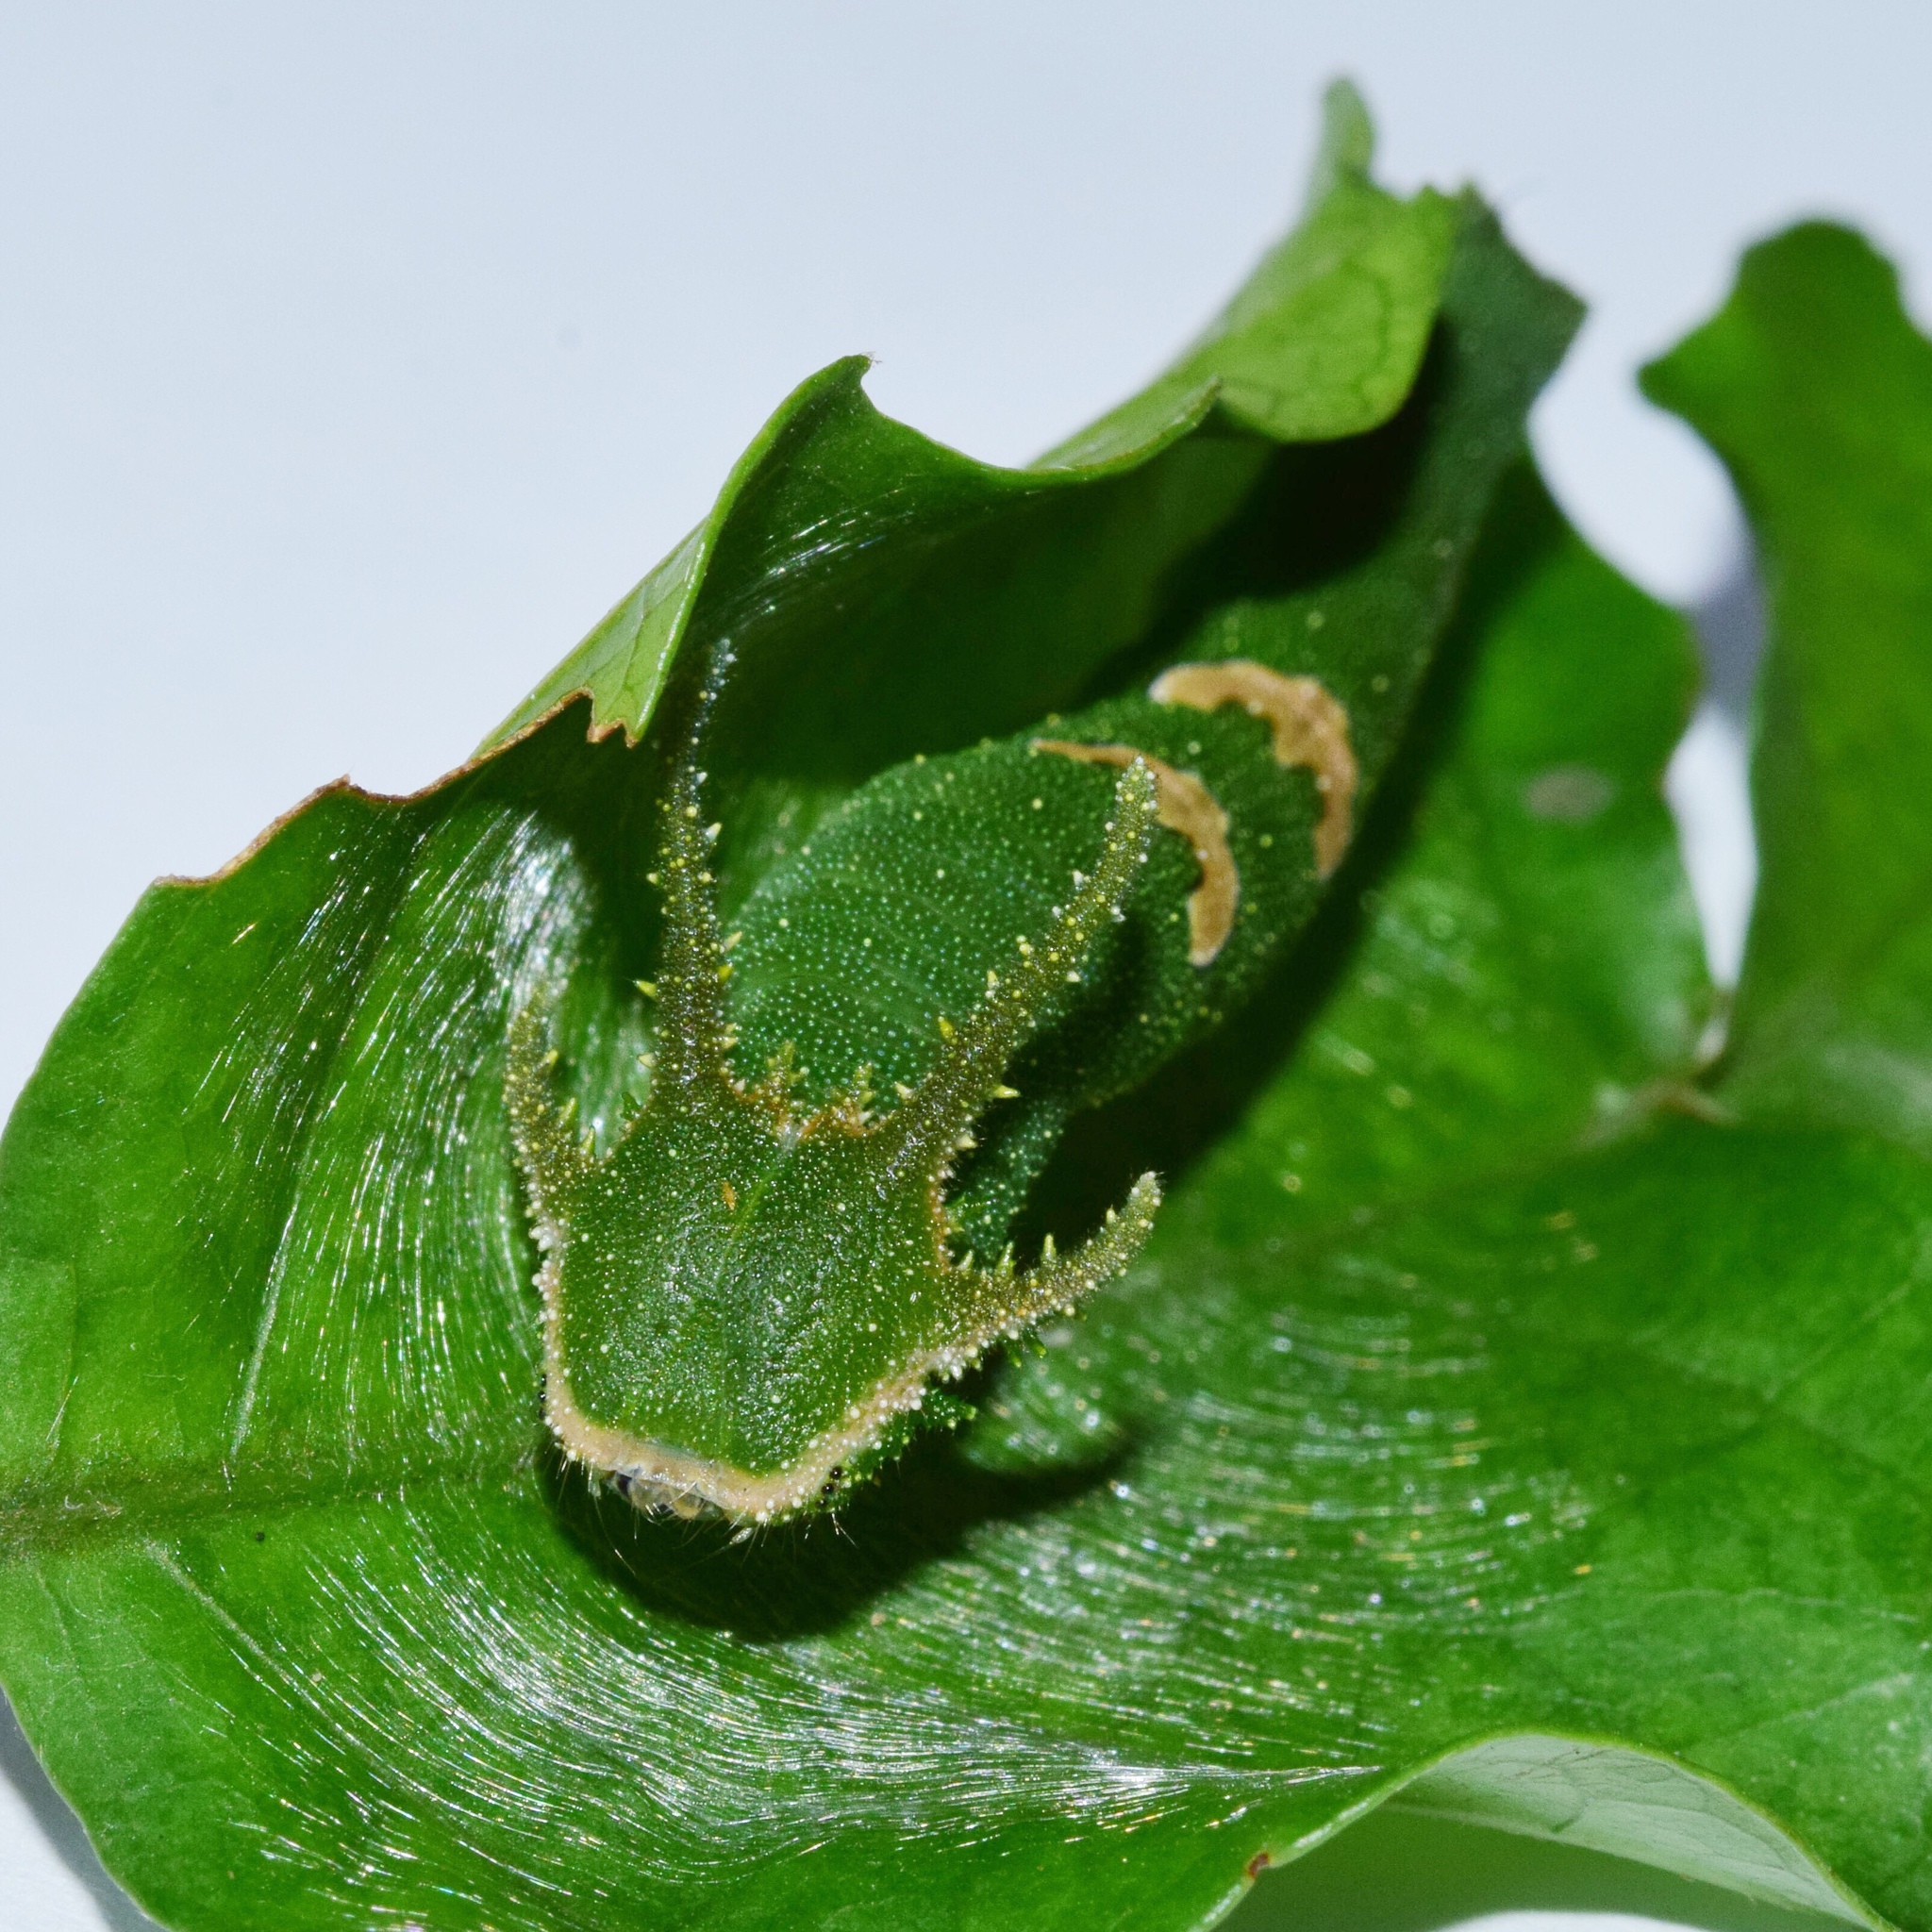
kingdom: Animalia
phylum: Arthropoda
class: Insecta
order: Lepidoptera
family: Nymphalidae
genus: Charaxes
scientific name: Charaxes varanes
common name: Common pearl charaxes
